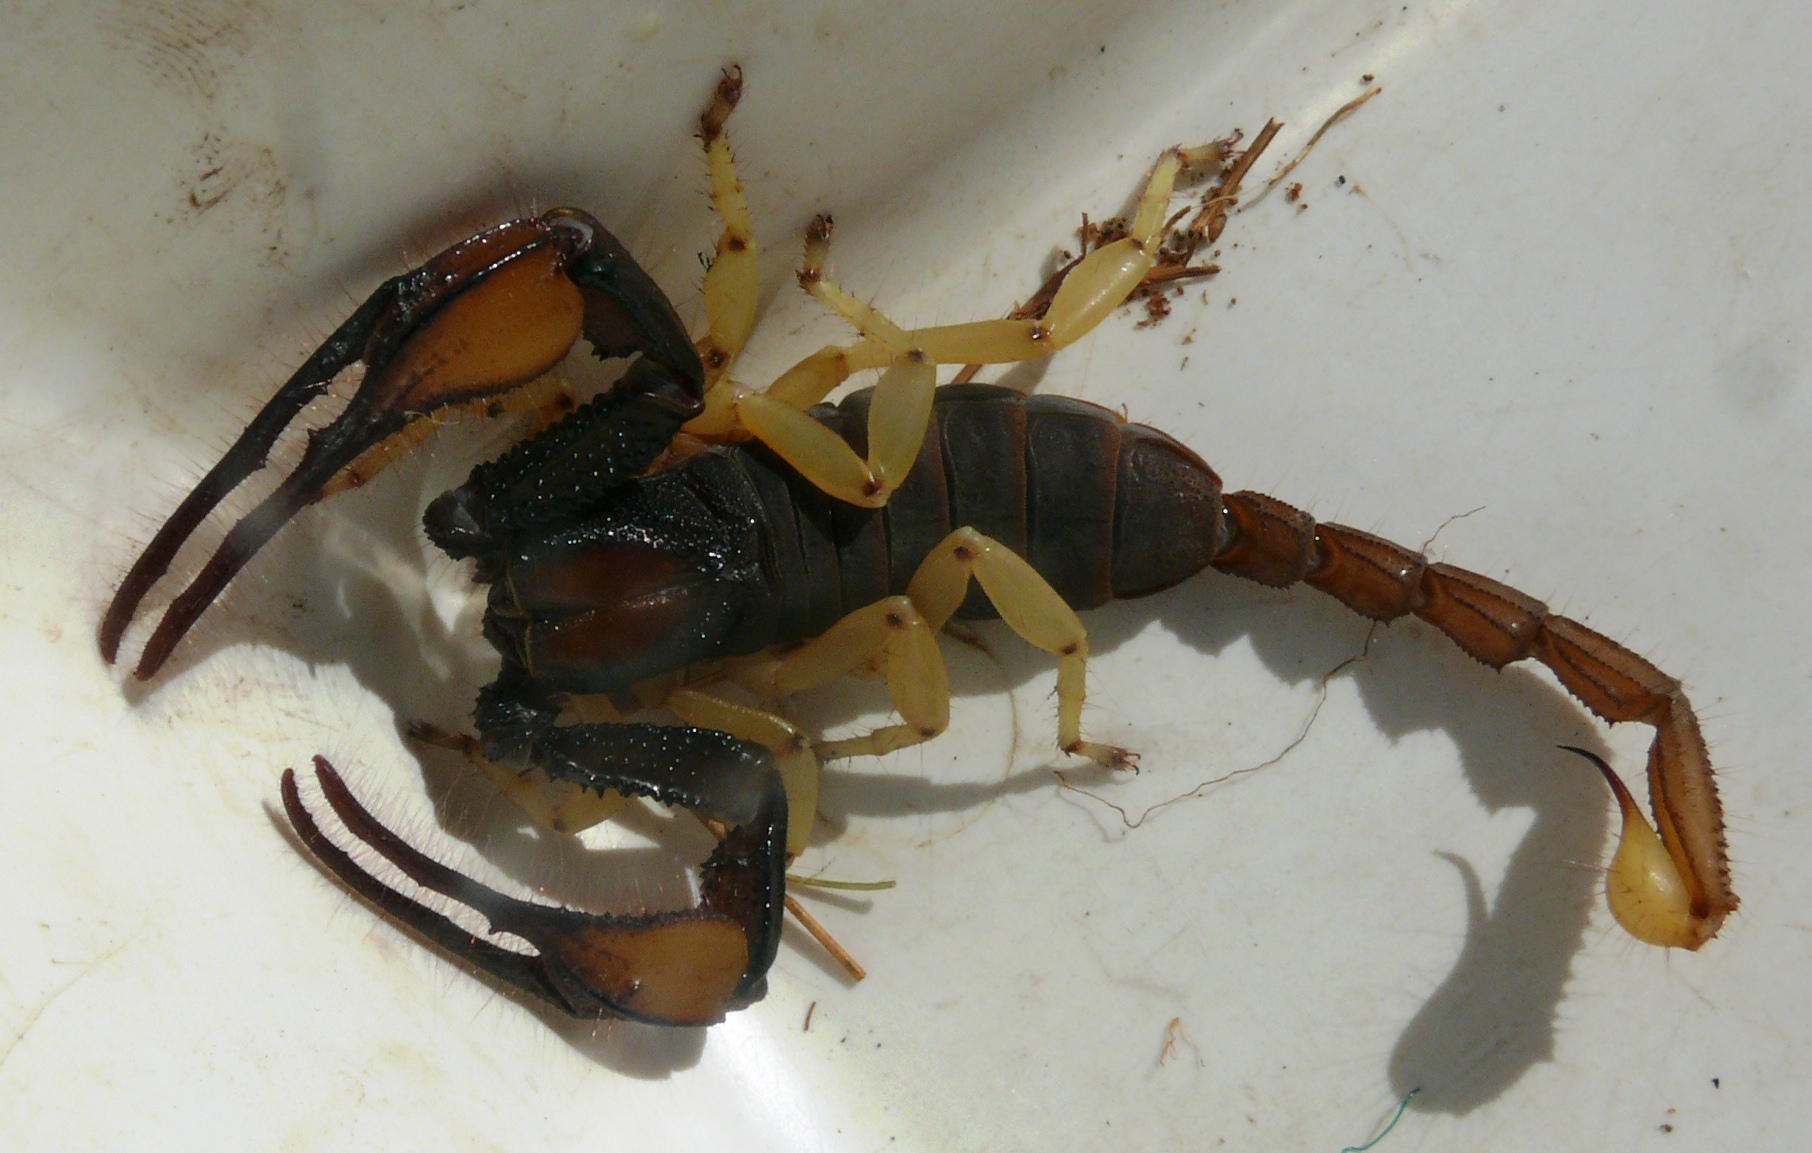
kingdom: Animalia
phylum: Arthropoda
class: Arachnida
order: Scorpiones
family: Scorpionidae
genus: Opistophthalmus
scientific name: Opistophthalmus pallipes
